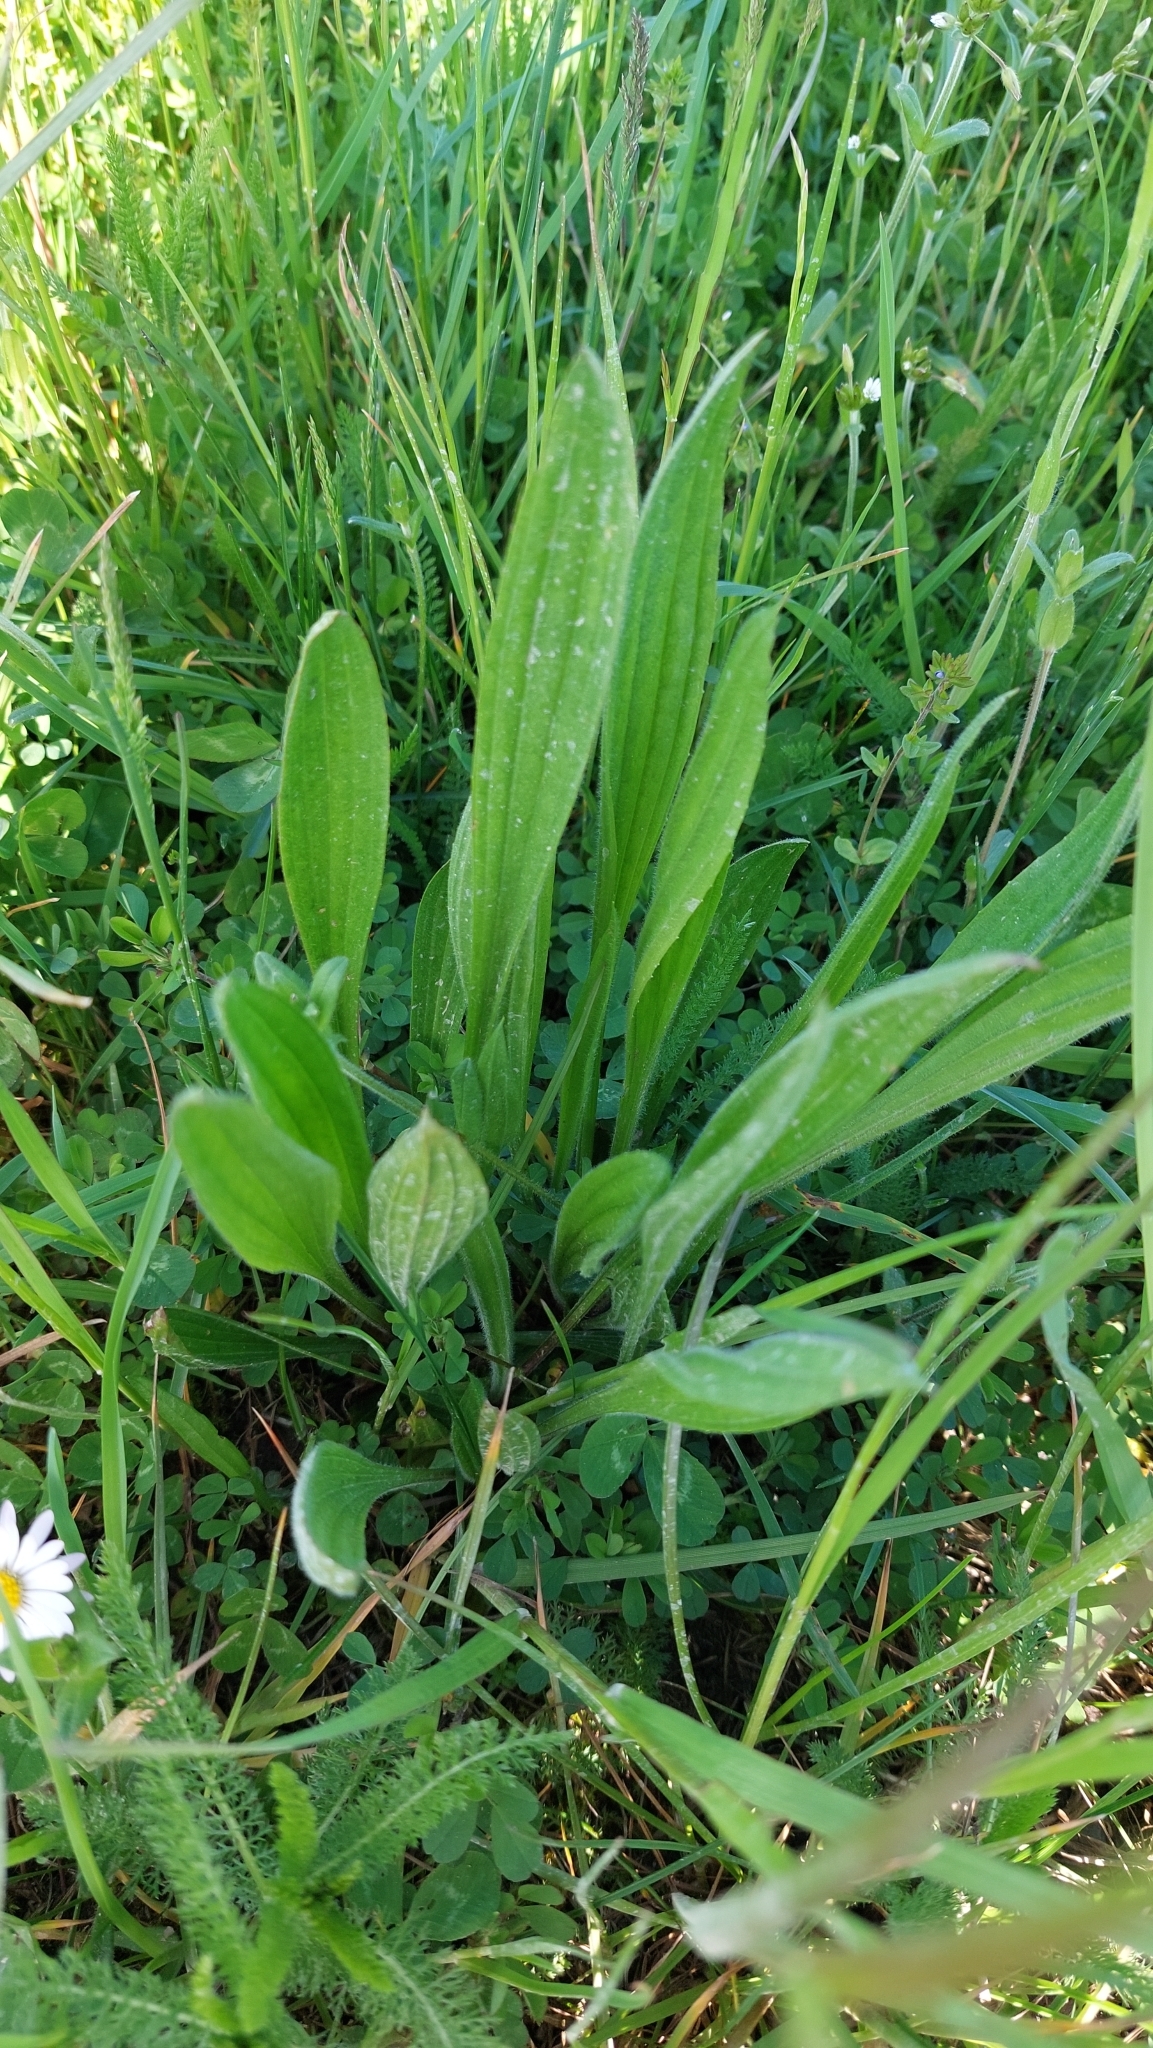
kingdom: Plantae
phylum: Tracheophyta
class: Magnoliopsida
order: Lamiales
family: Plantaginaceae
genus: Plantago
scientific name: Plantago lanceolata
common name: Ribwort plantain
